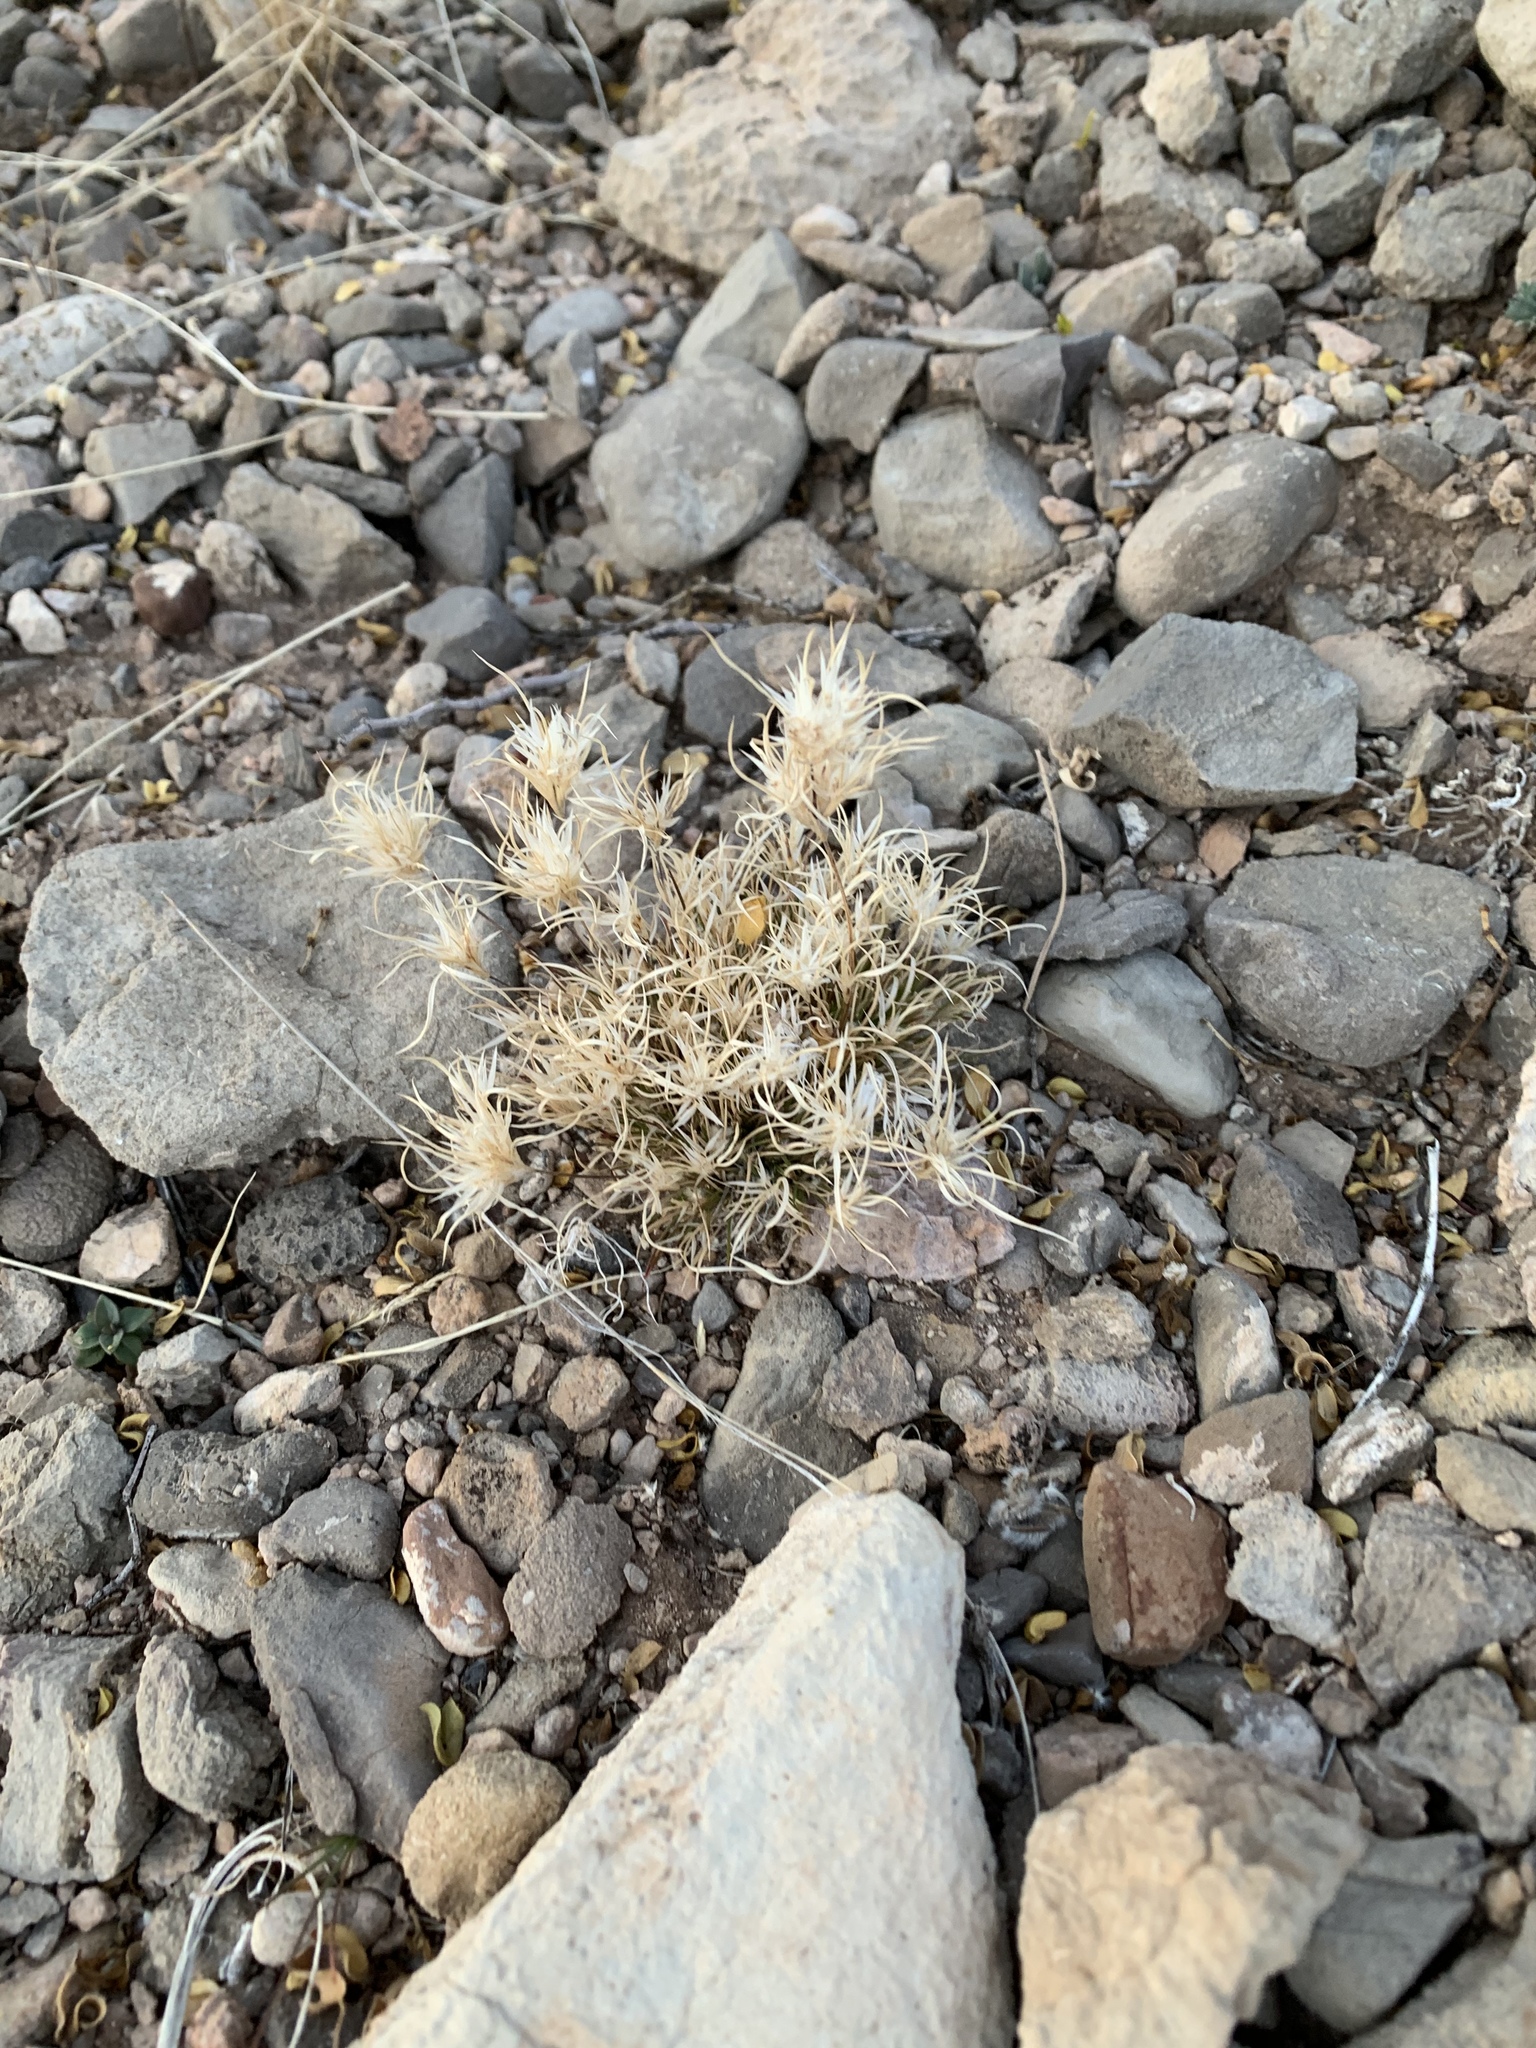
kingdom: Plantae
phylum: Tracheophyta
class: Liliopsida
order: Poales
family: Poaceae
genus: Dasyochloa
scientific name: Dasyochloa pulchella
